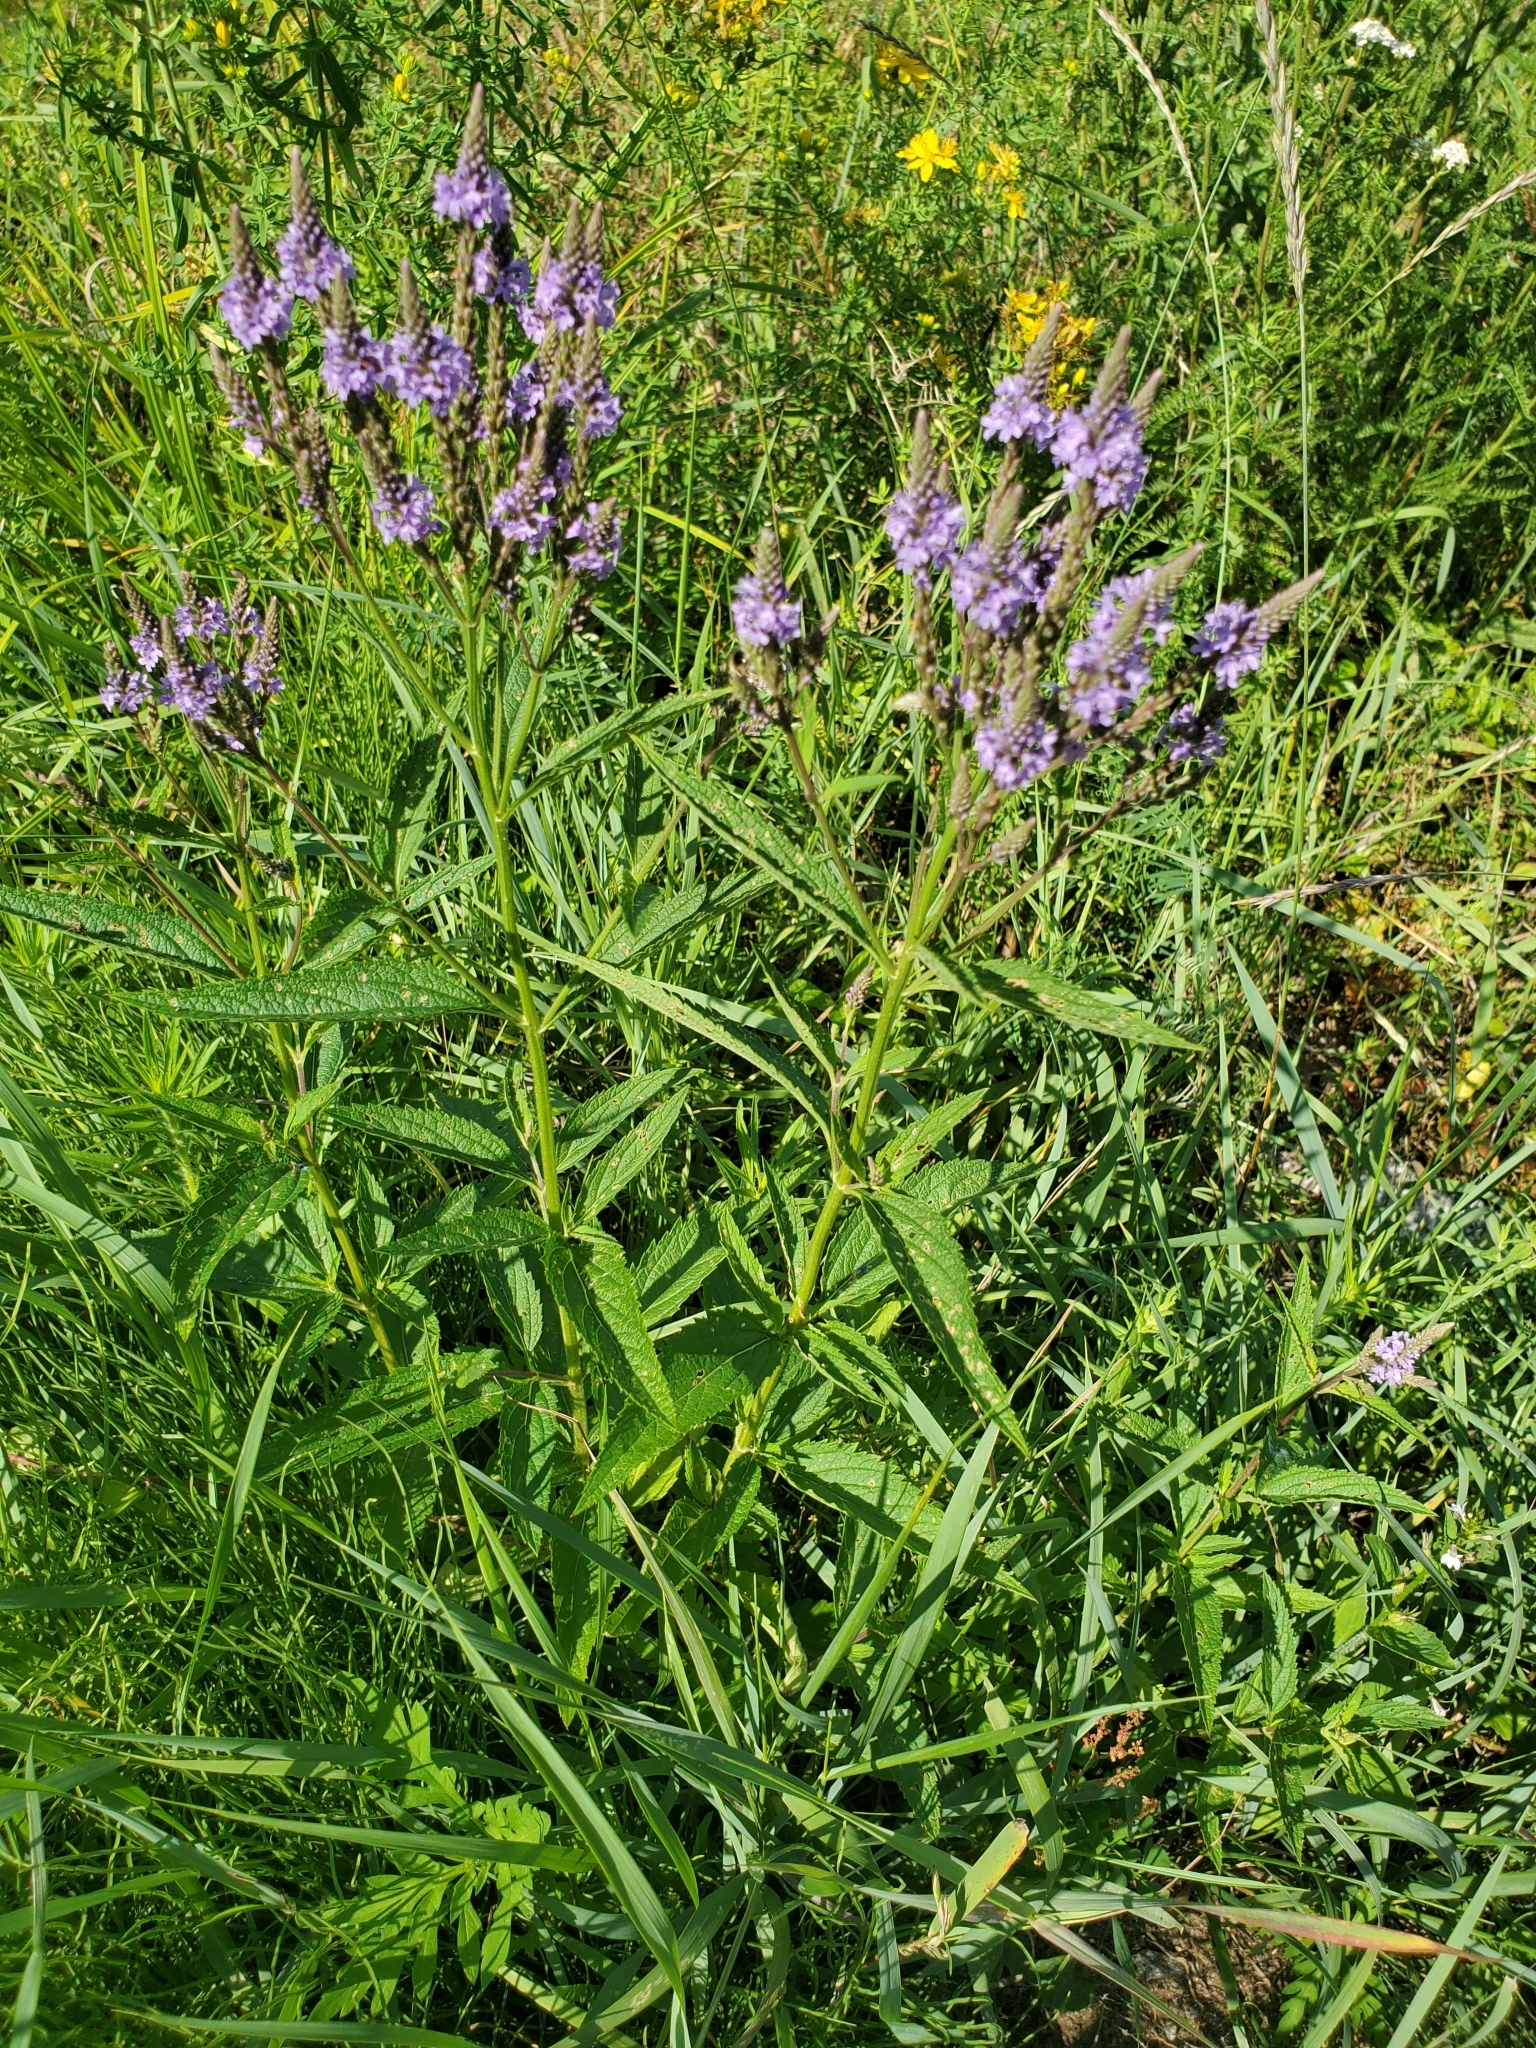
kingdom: Plantae
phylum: Tracheophyta
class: Magnoliopsida
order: Lamiales
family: Verbenaceae
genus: Verbena
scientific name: Verbena hastata
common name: American blue vervain
